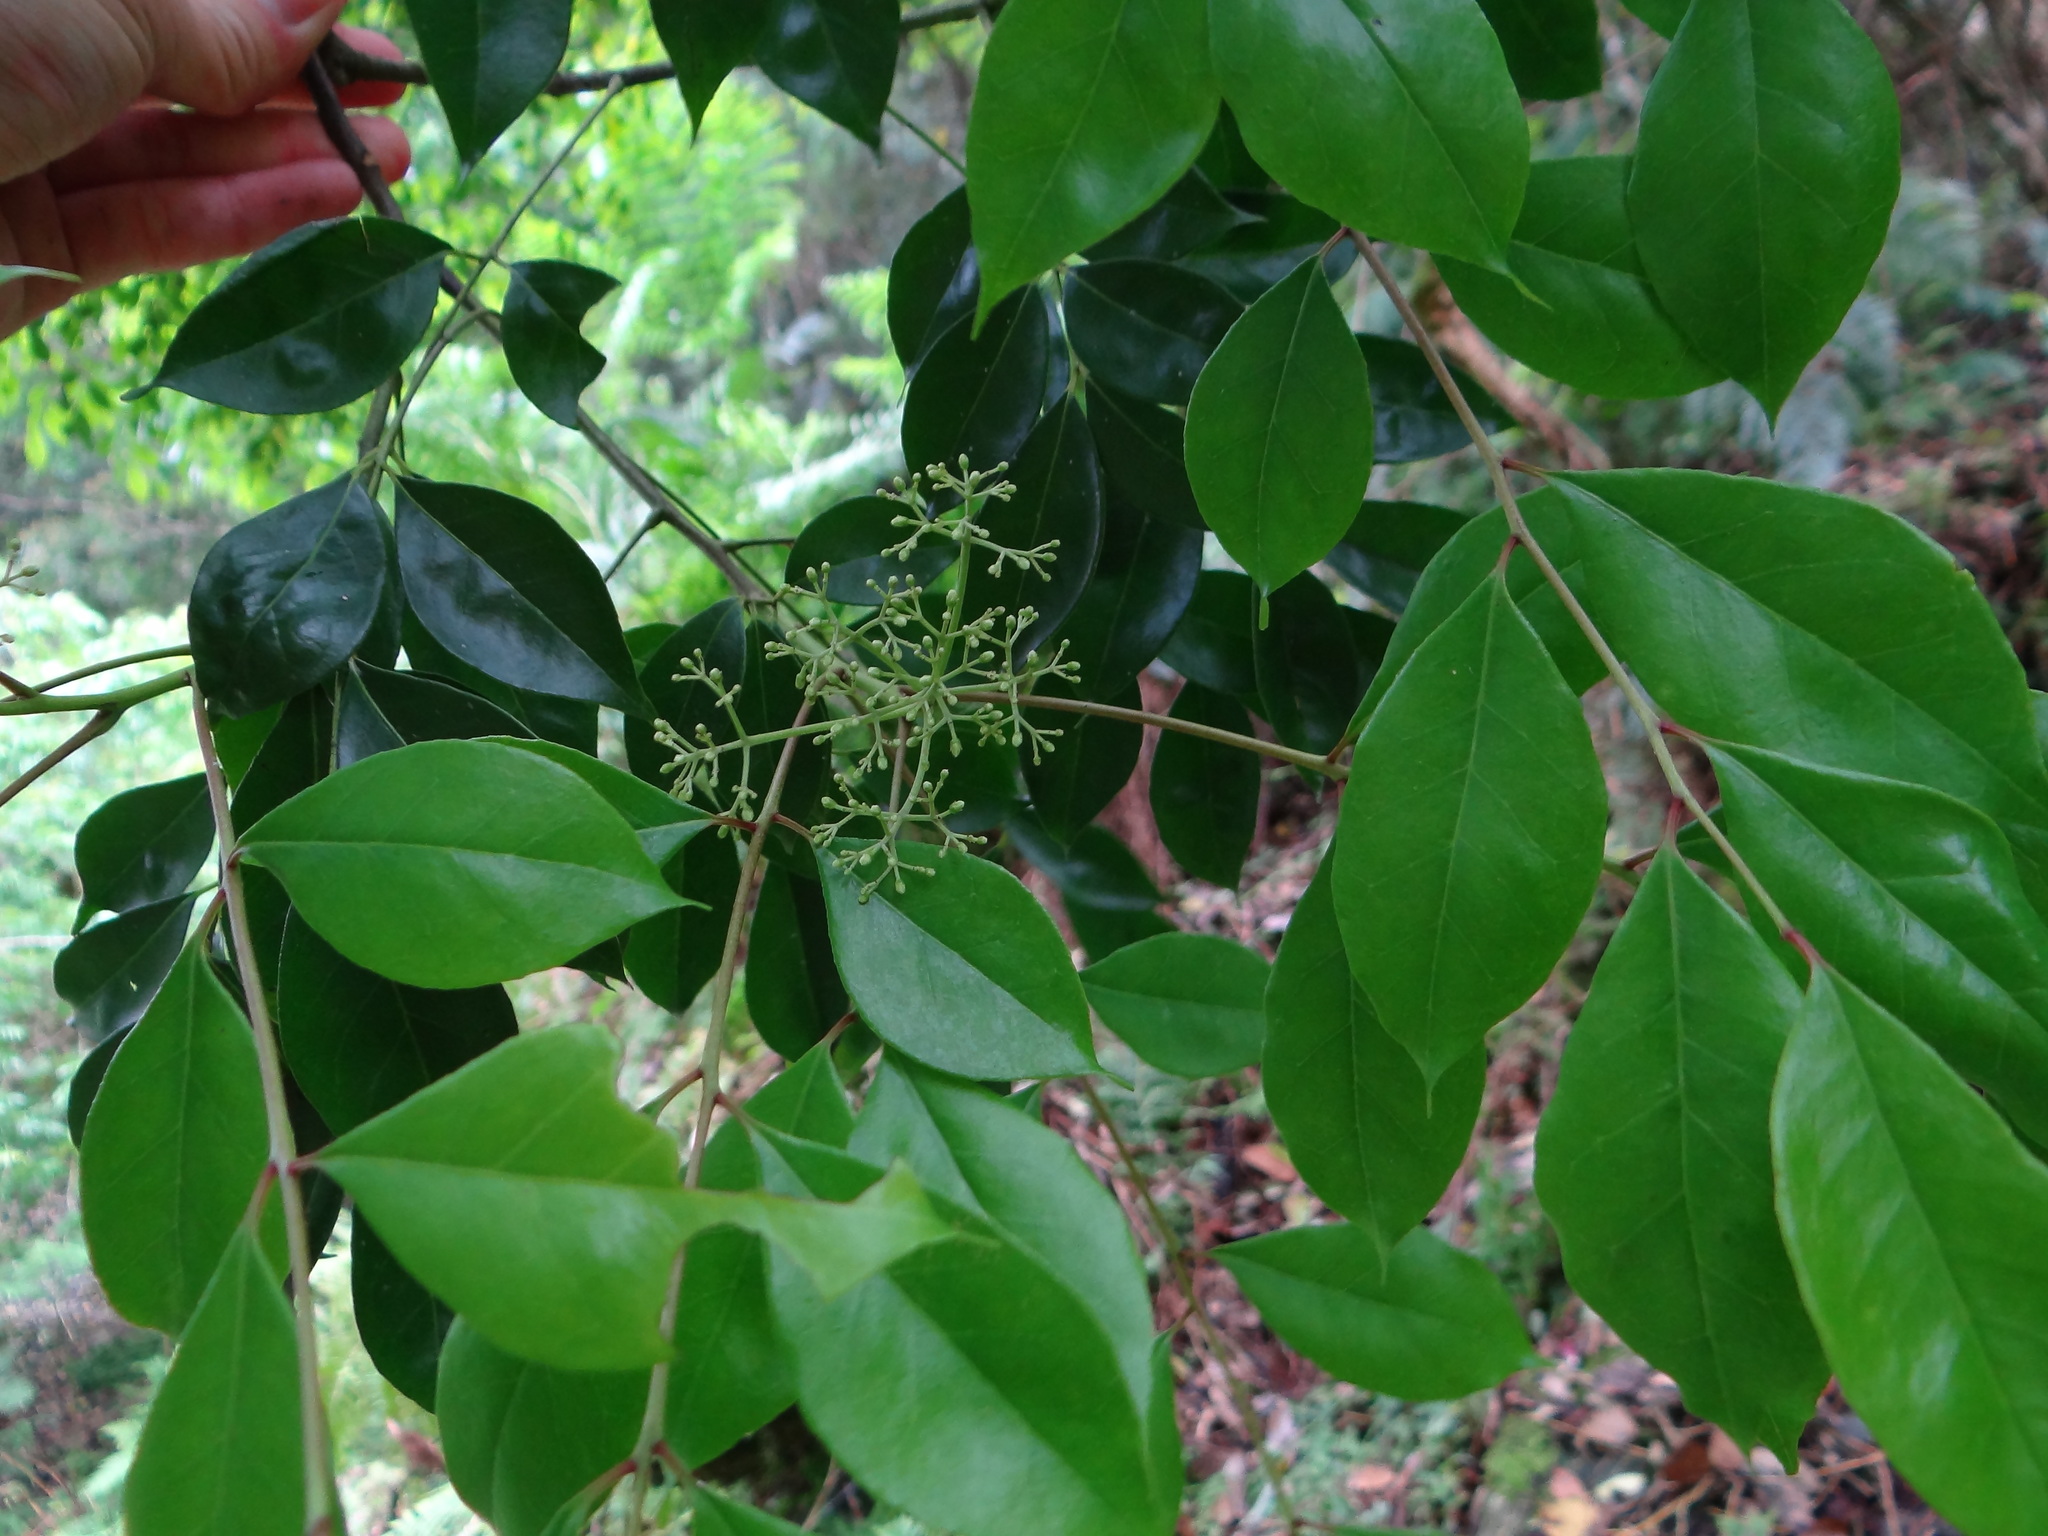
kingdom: Plantae
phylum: Tracheophyta
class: Magnoliopsida
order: Sapindales
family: Rutaceae
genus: Murraya
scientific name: Murraya euchrestifolia
